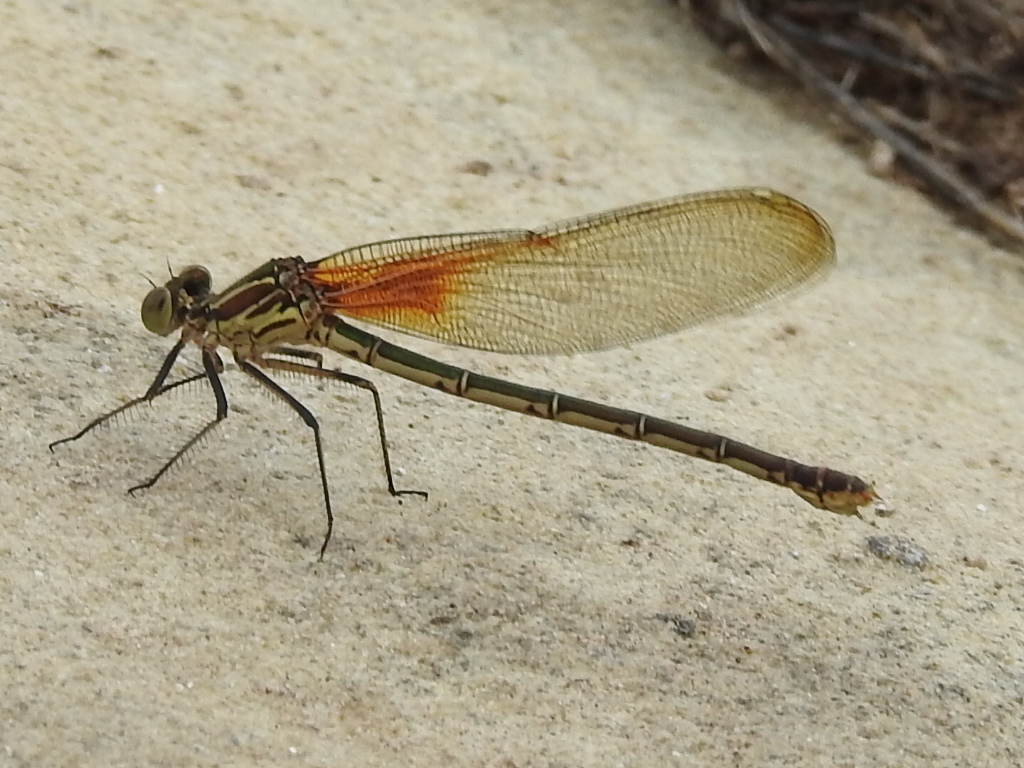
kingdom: Animalia
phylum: Arthropoda
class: Insecta
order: Odonata
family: Calopterygidae
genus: Hetaerina
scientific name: Hetaerina americana
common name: American rubyspot
